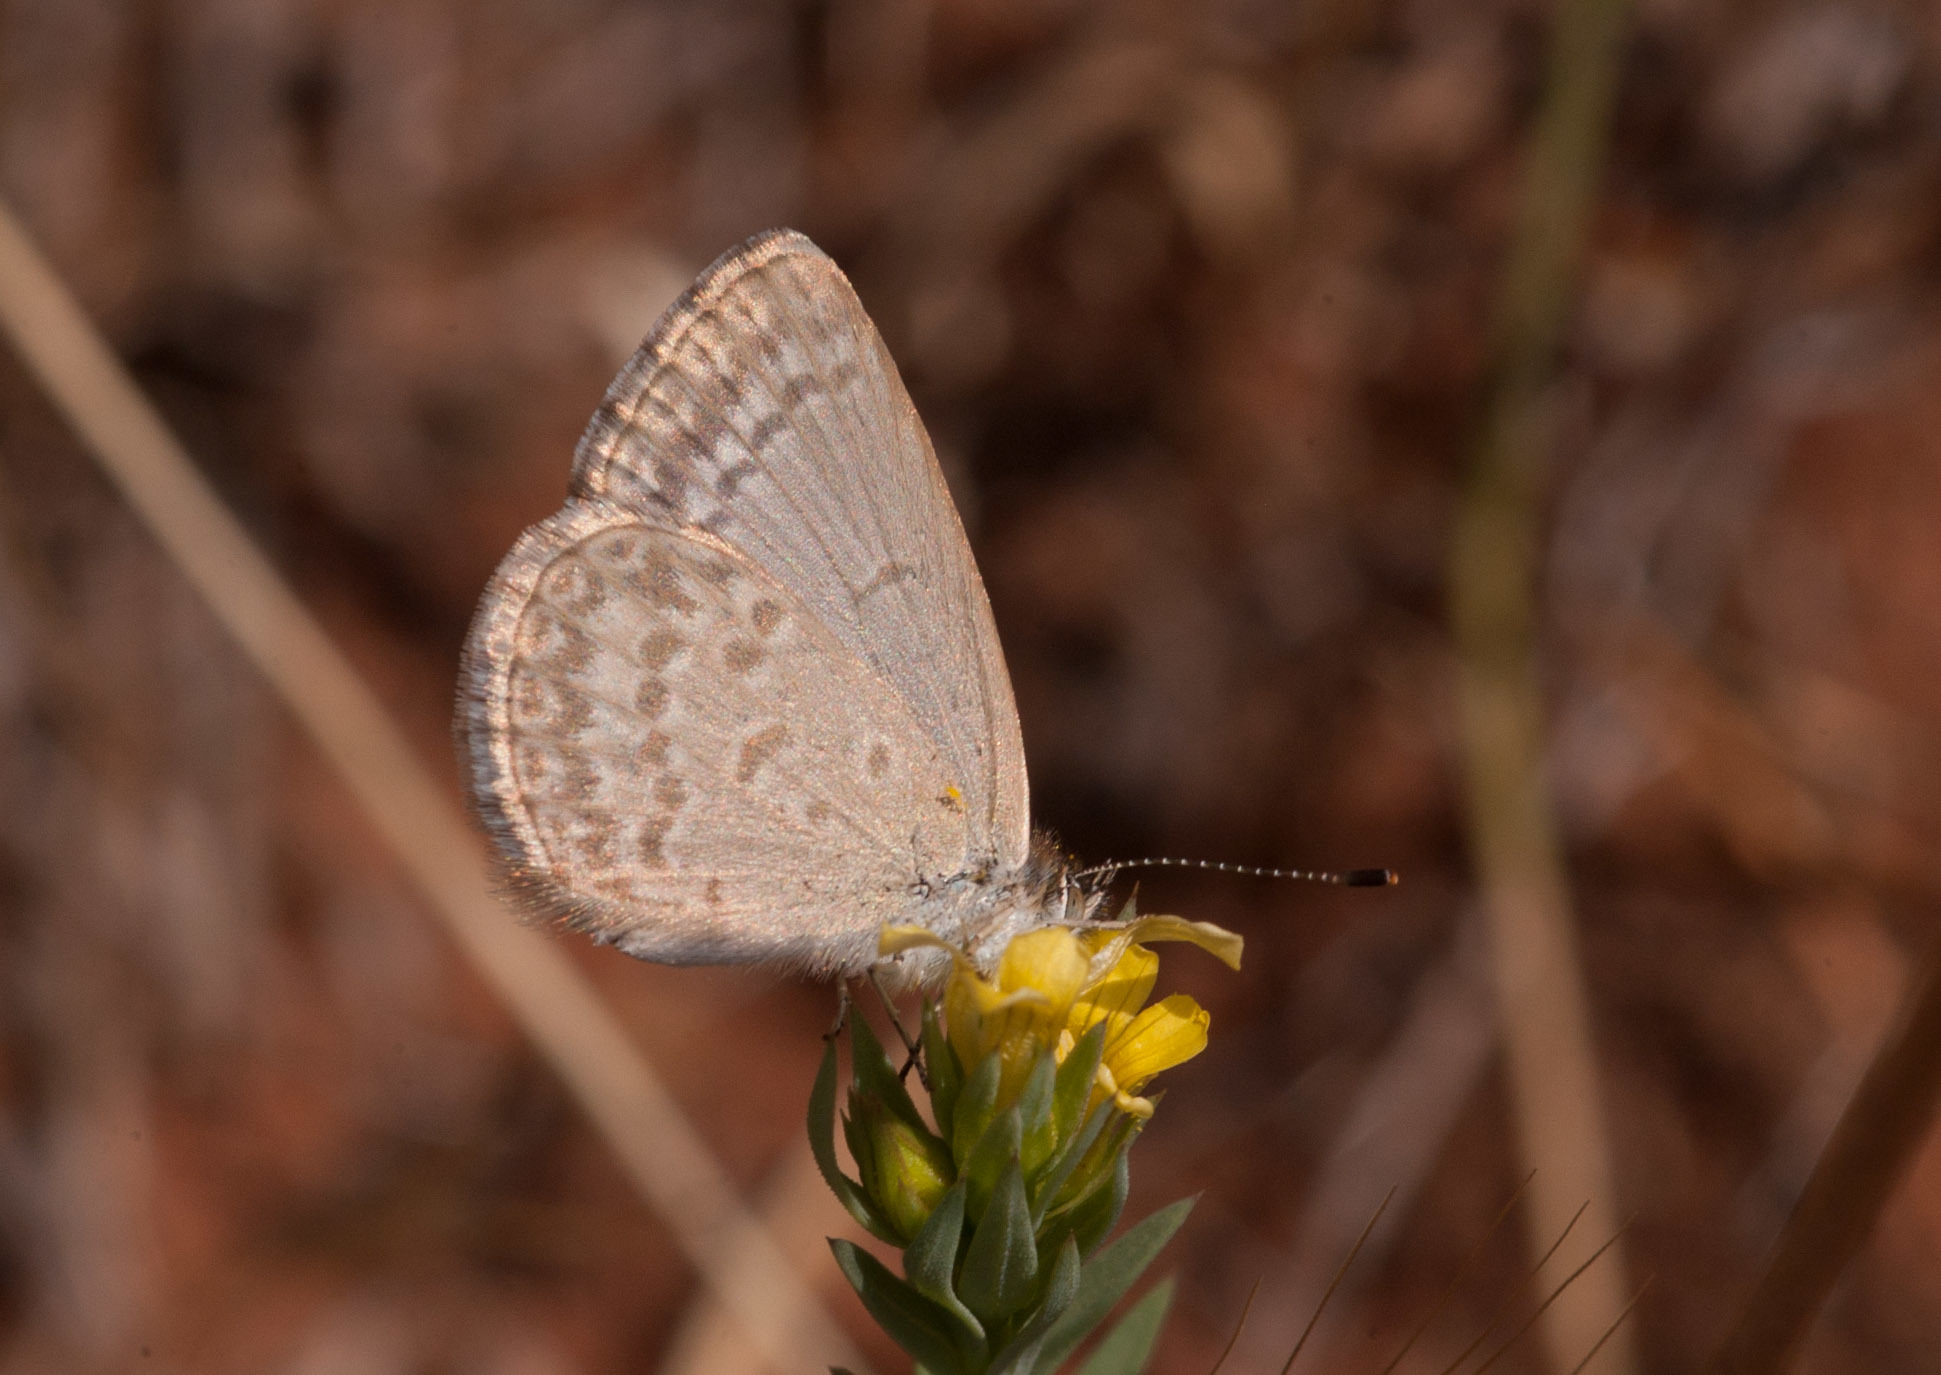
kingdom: Animalia
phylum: Arthropoda
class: Insecta
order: Lepidoptera
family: Lycaenidae
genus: Zizina
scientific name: Zizina labradus
